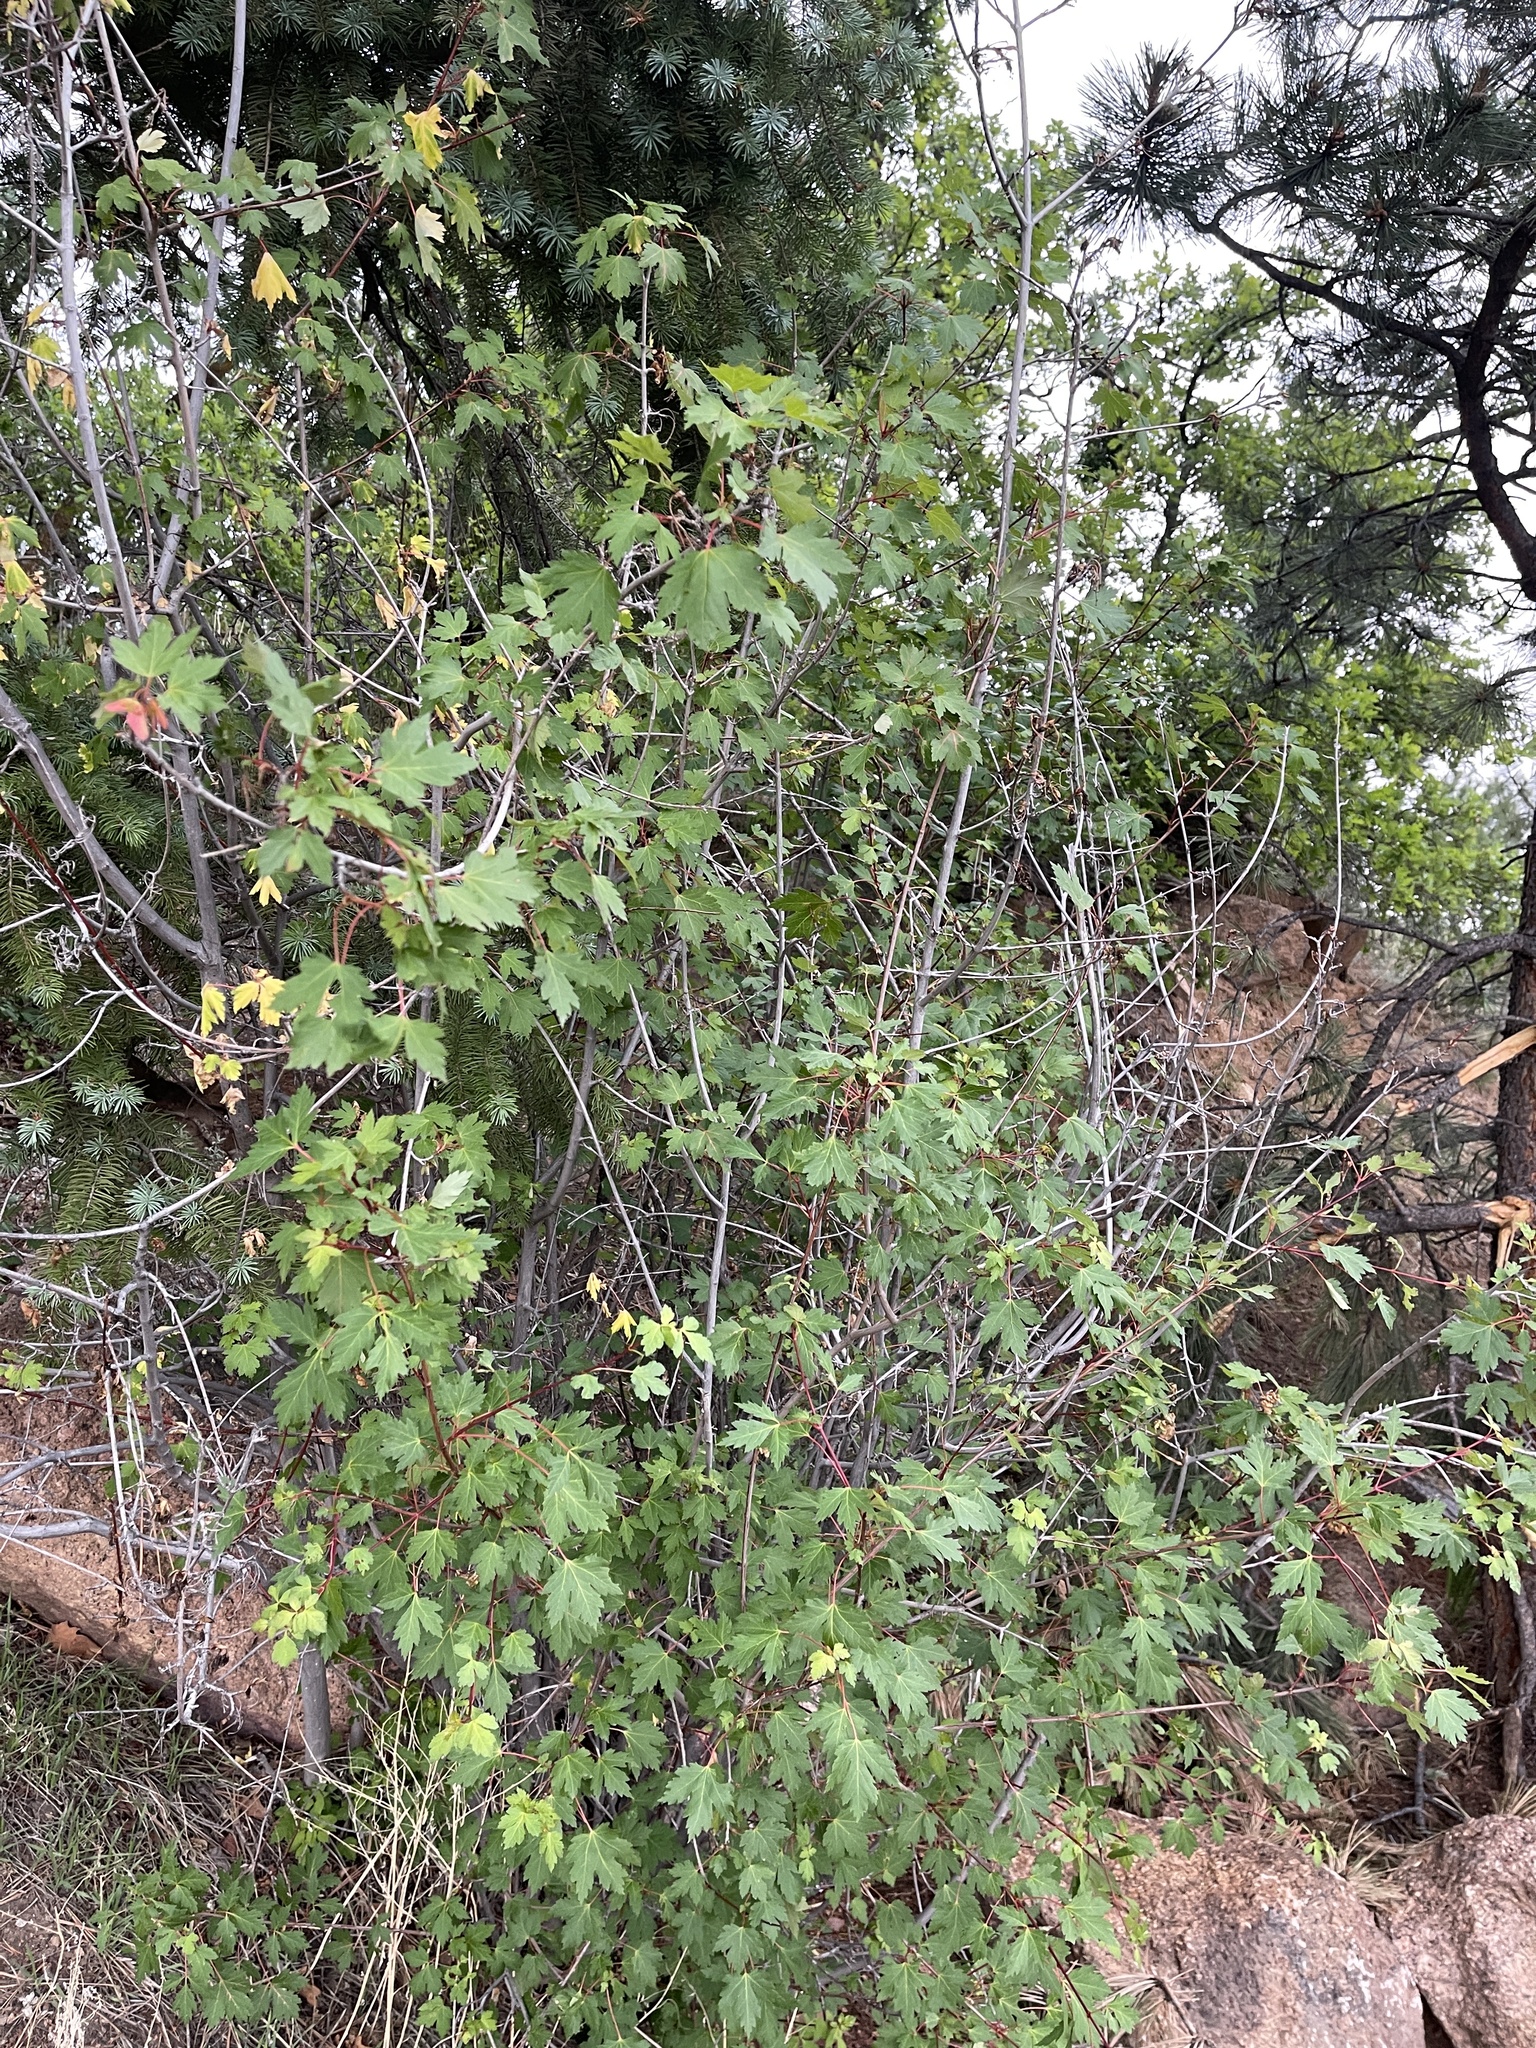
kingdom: Plantae
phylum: Tracheophyta
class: Magnoliopsida
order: Sapindales
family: Sapindaceae
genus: Acer
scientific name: Acer glabrum
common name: Rocky mountain maple
